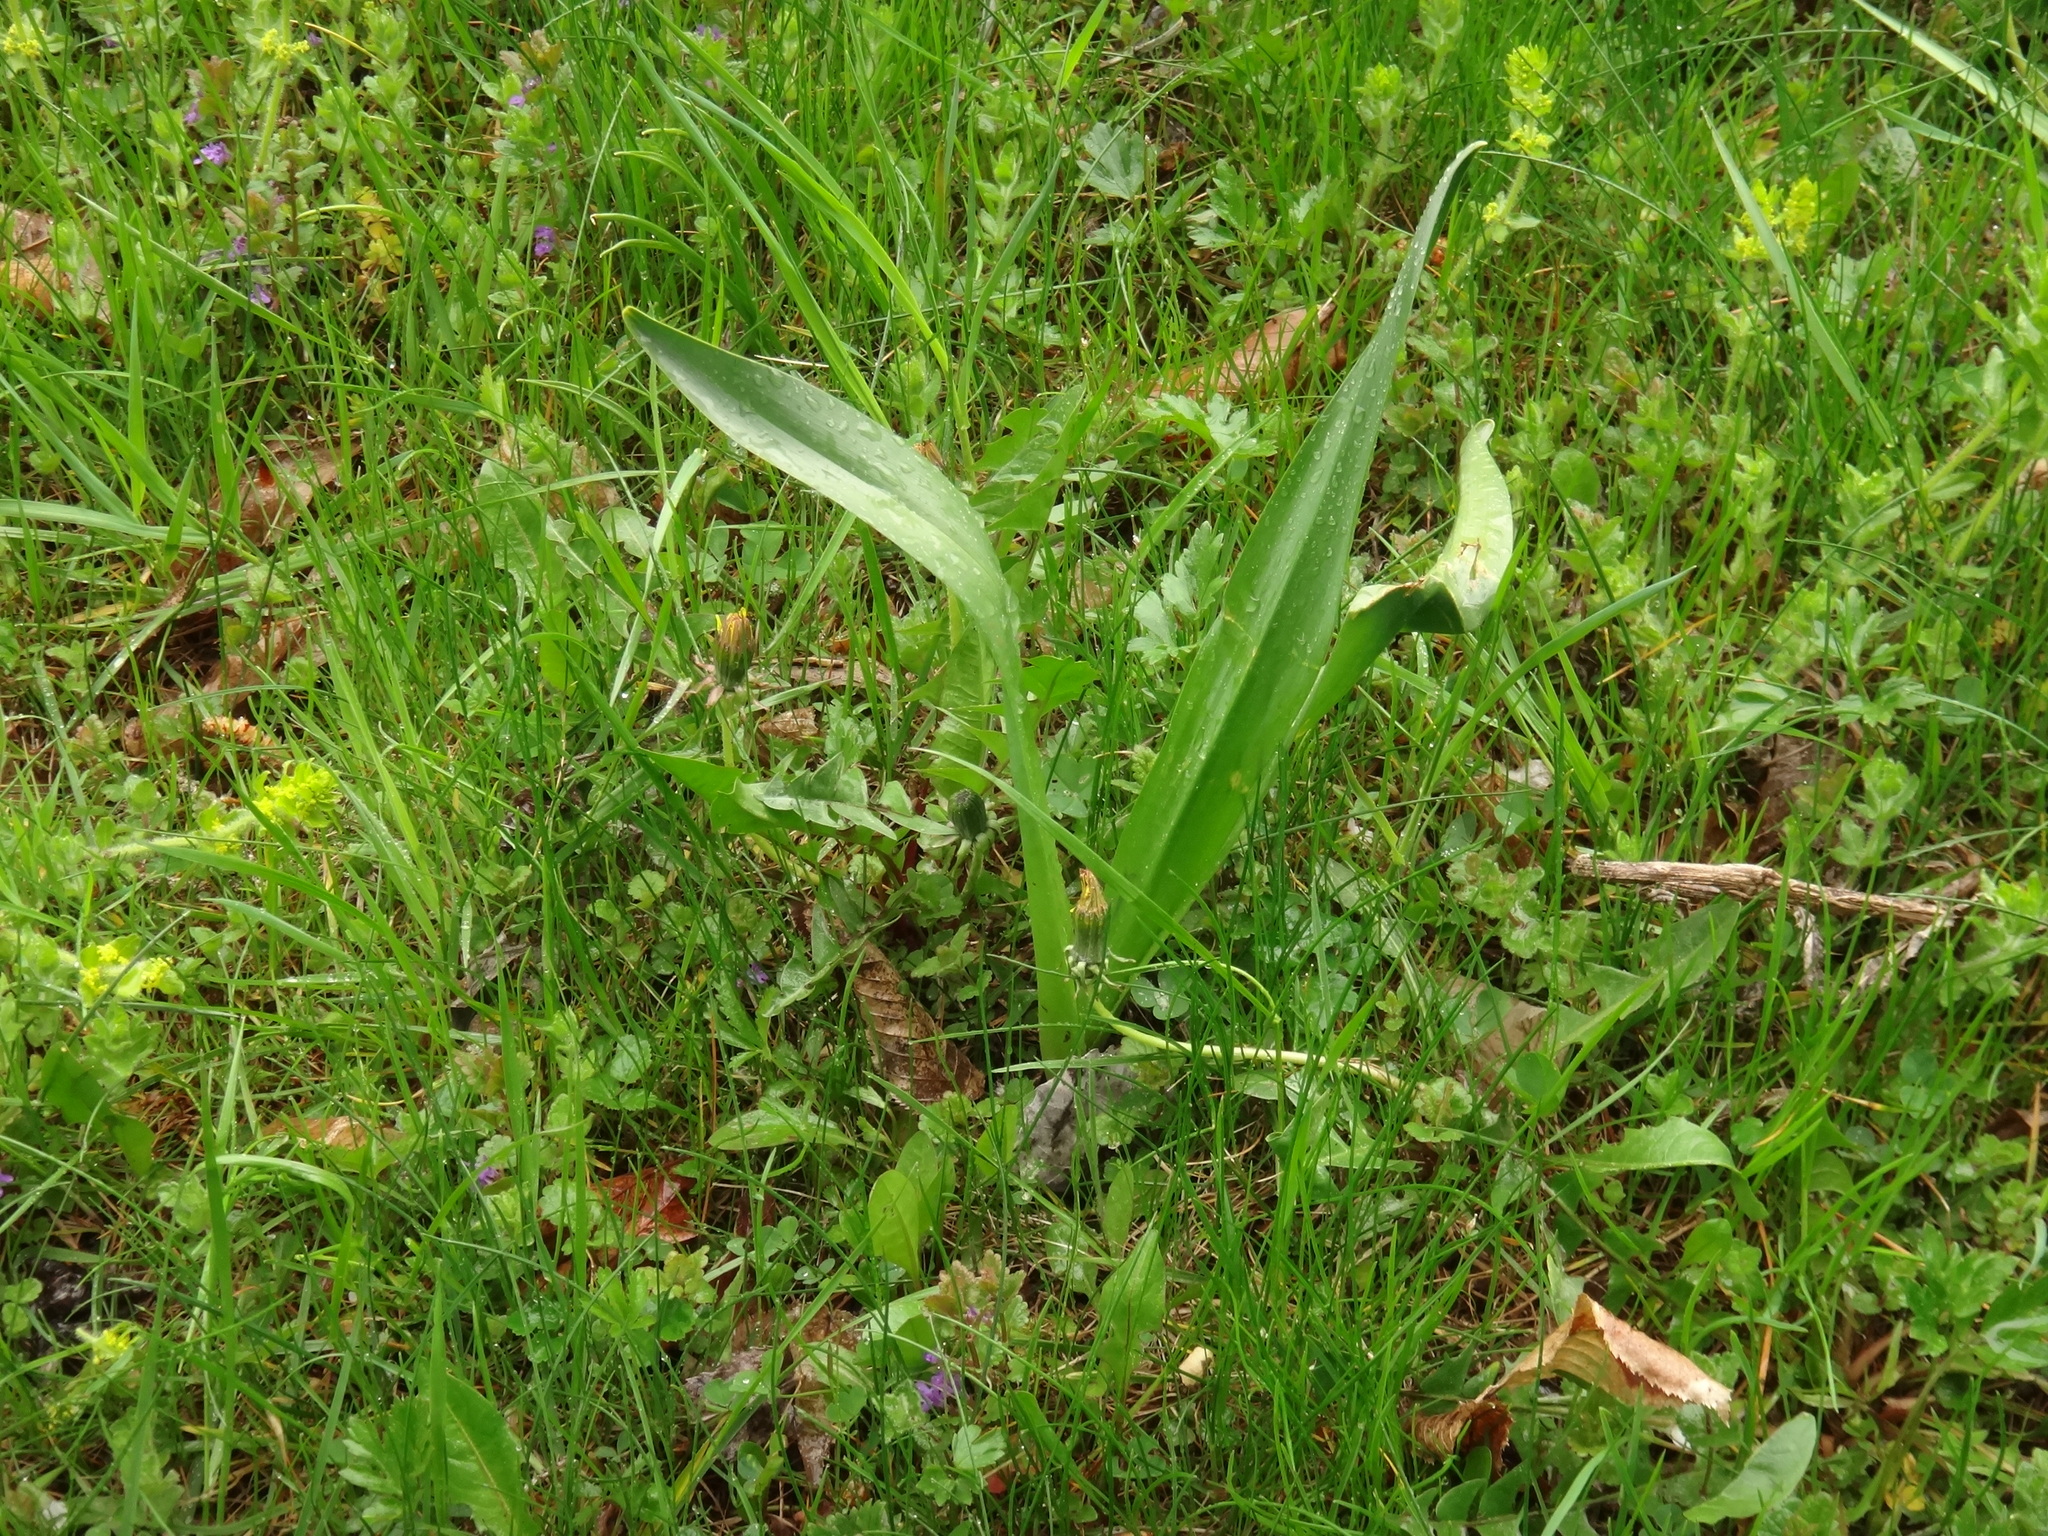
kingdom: Plantae
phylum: Tracheophyta
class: Liliopsida
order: Liliales
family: Colchicaceae
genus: Colchicum
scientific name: Colchicum autumnale
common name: Autumn crocus
